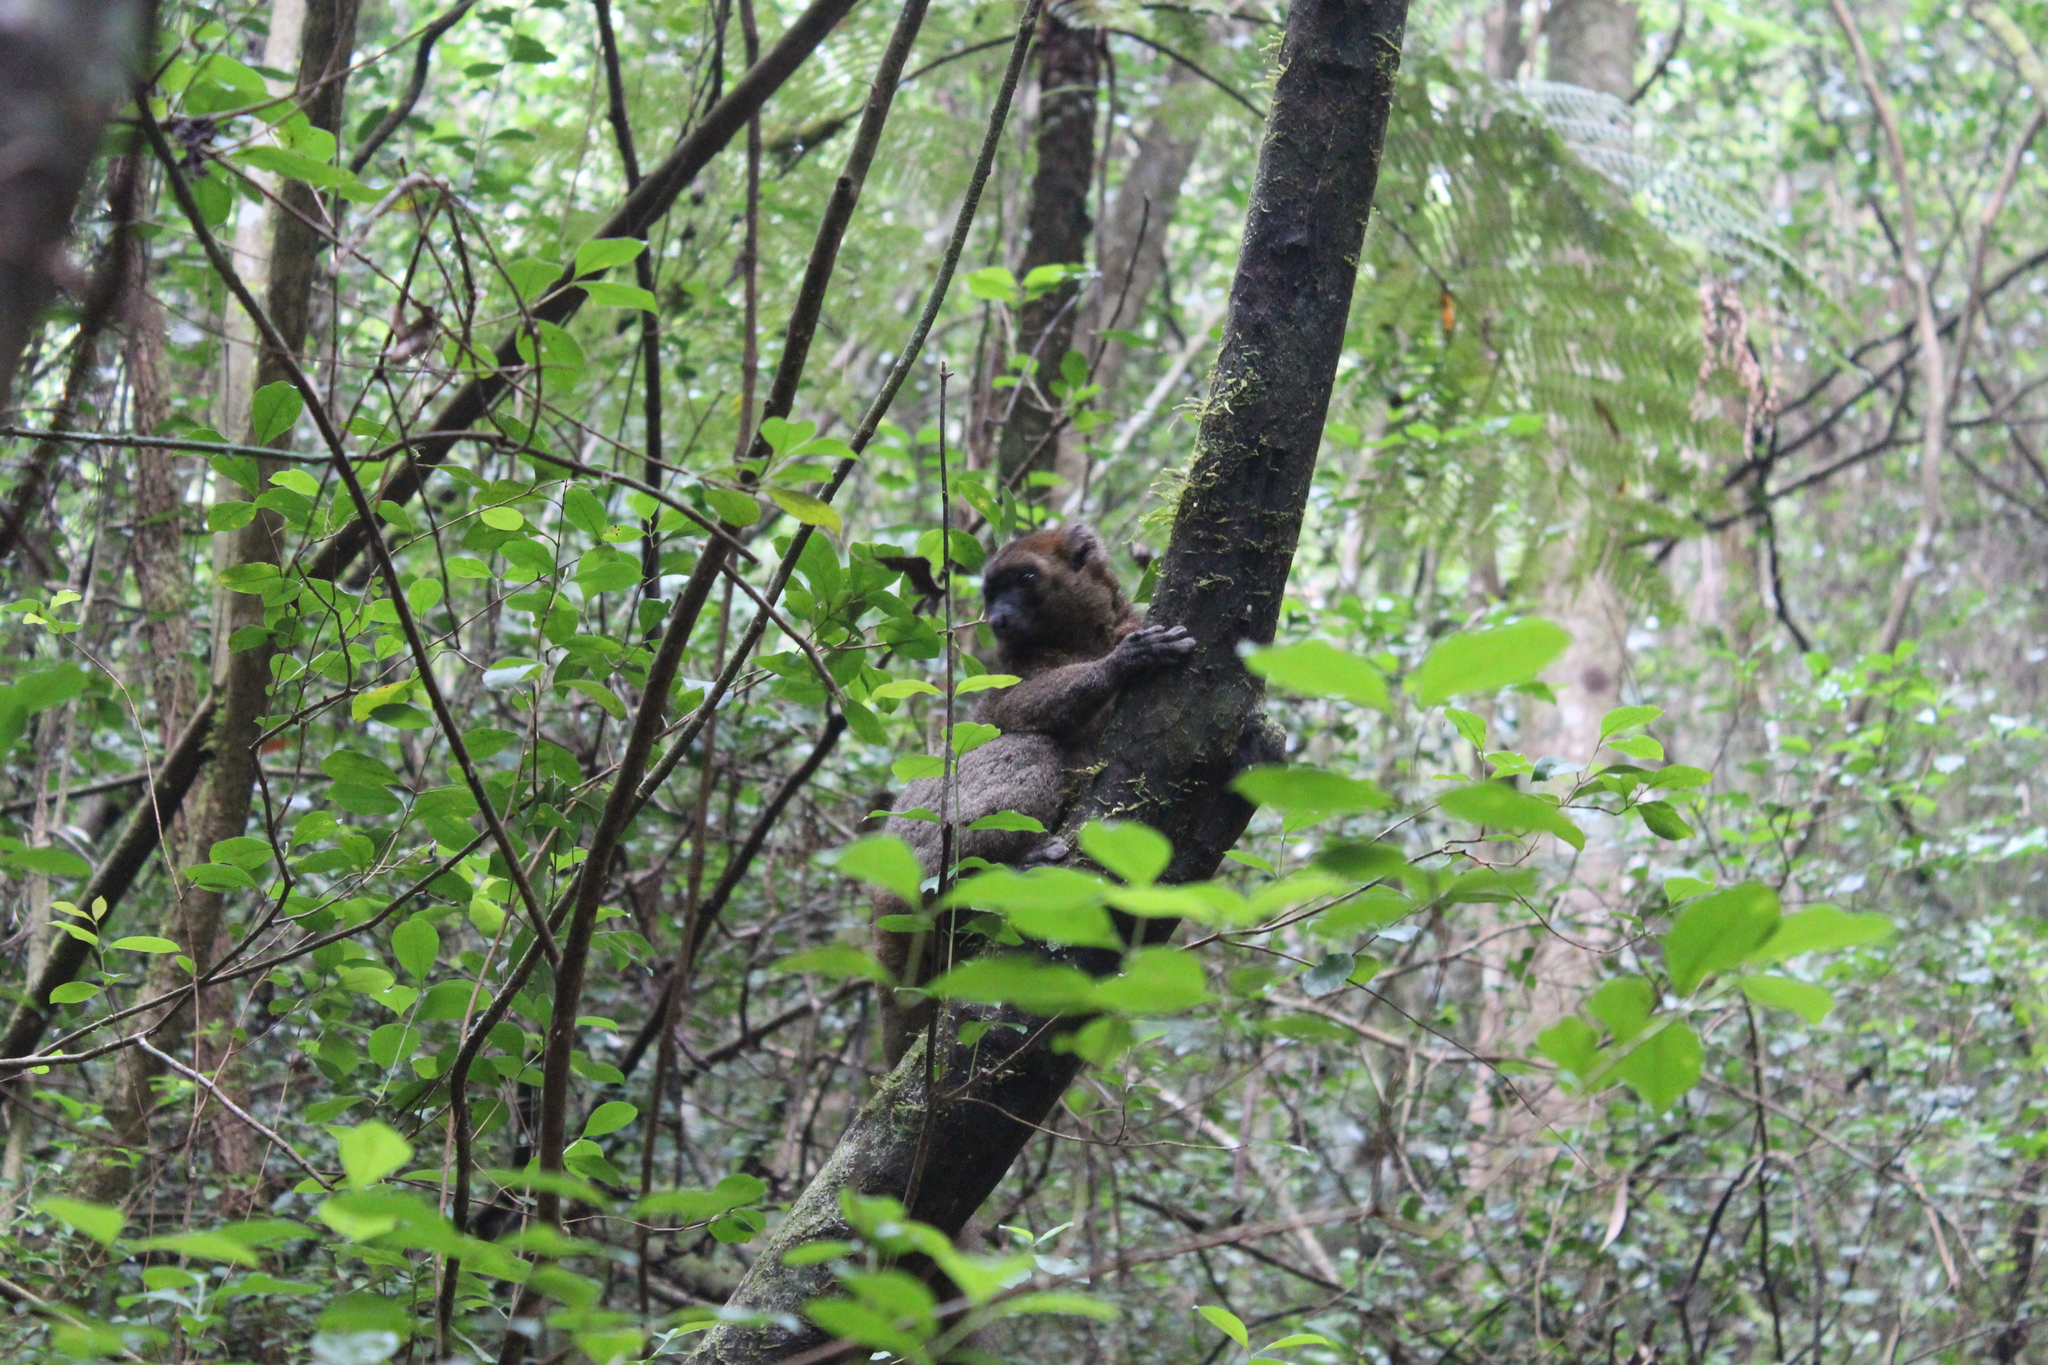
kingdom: Animalia
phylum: Chordata
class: Mammalia
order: Primates
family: Lemuridae
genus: Prolemur
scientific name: Prolemur simus
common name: Greater bamboo lemur
